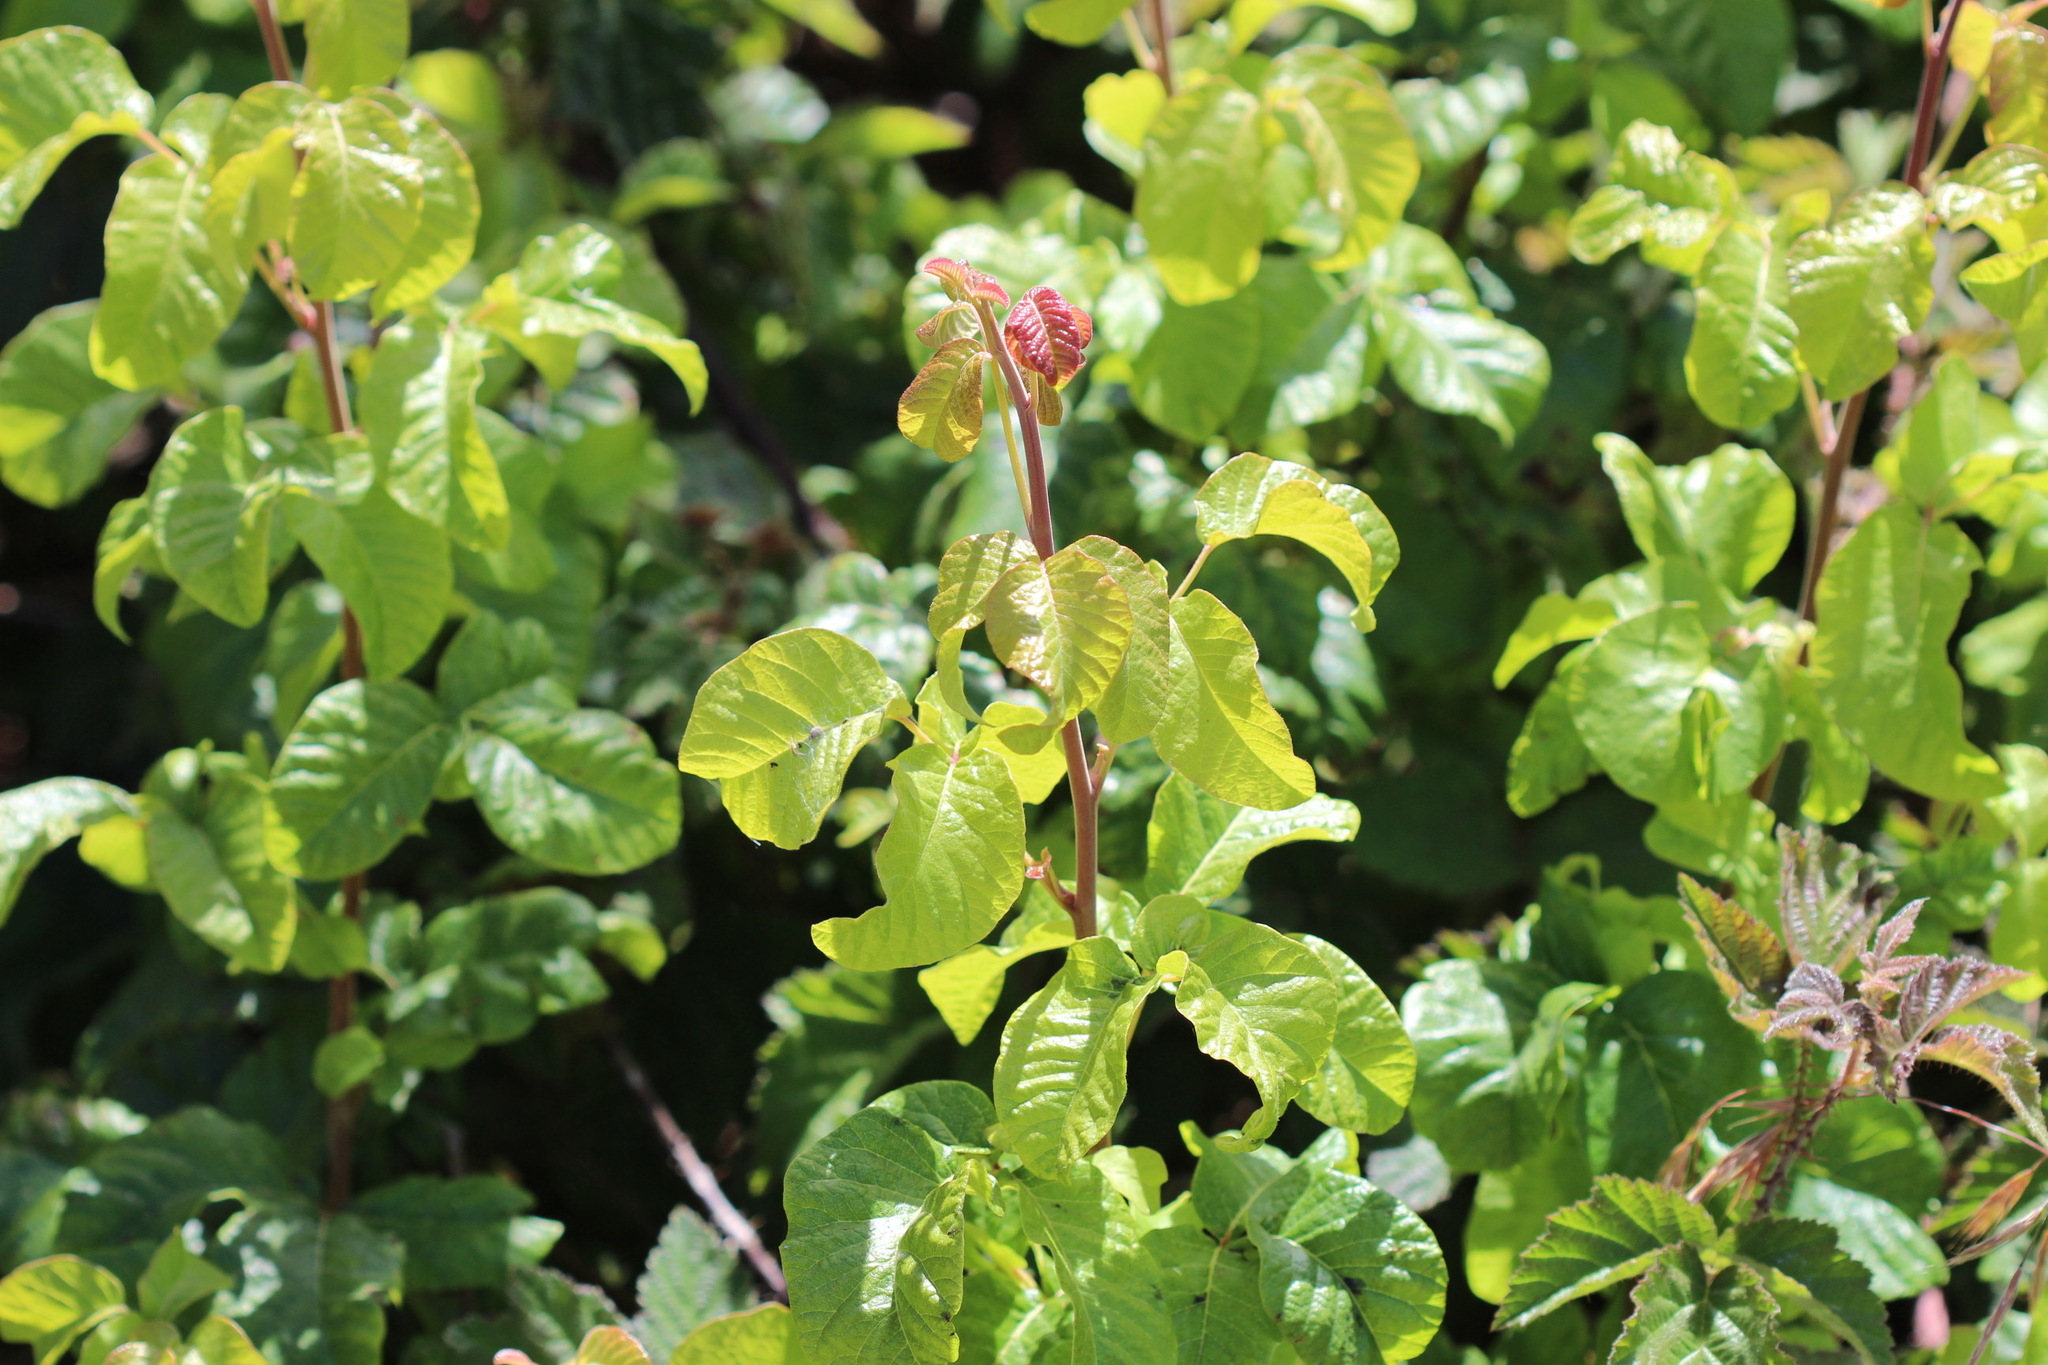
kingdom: Plantae
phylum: Tracheophyta
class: Magnoliopsida
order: Sapindales
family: Anacardiaceae
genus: Toxicodendron
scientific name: Toxicodendron diversilobum
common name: Pacific poison-oak
